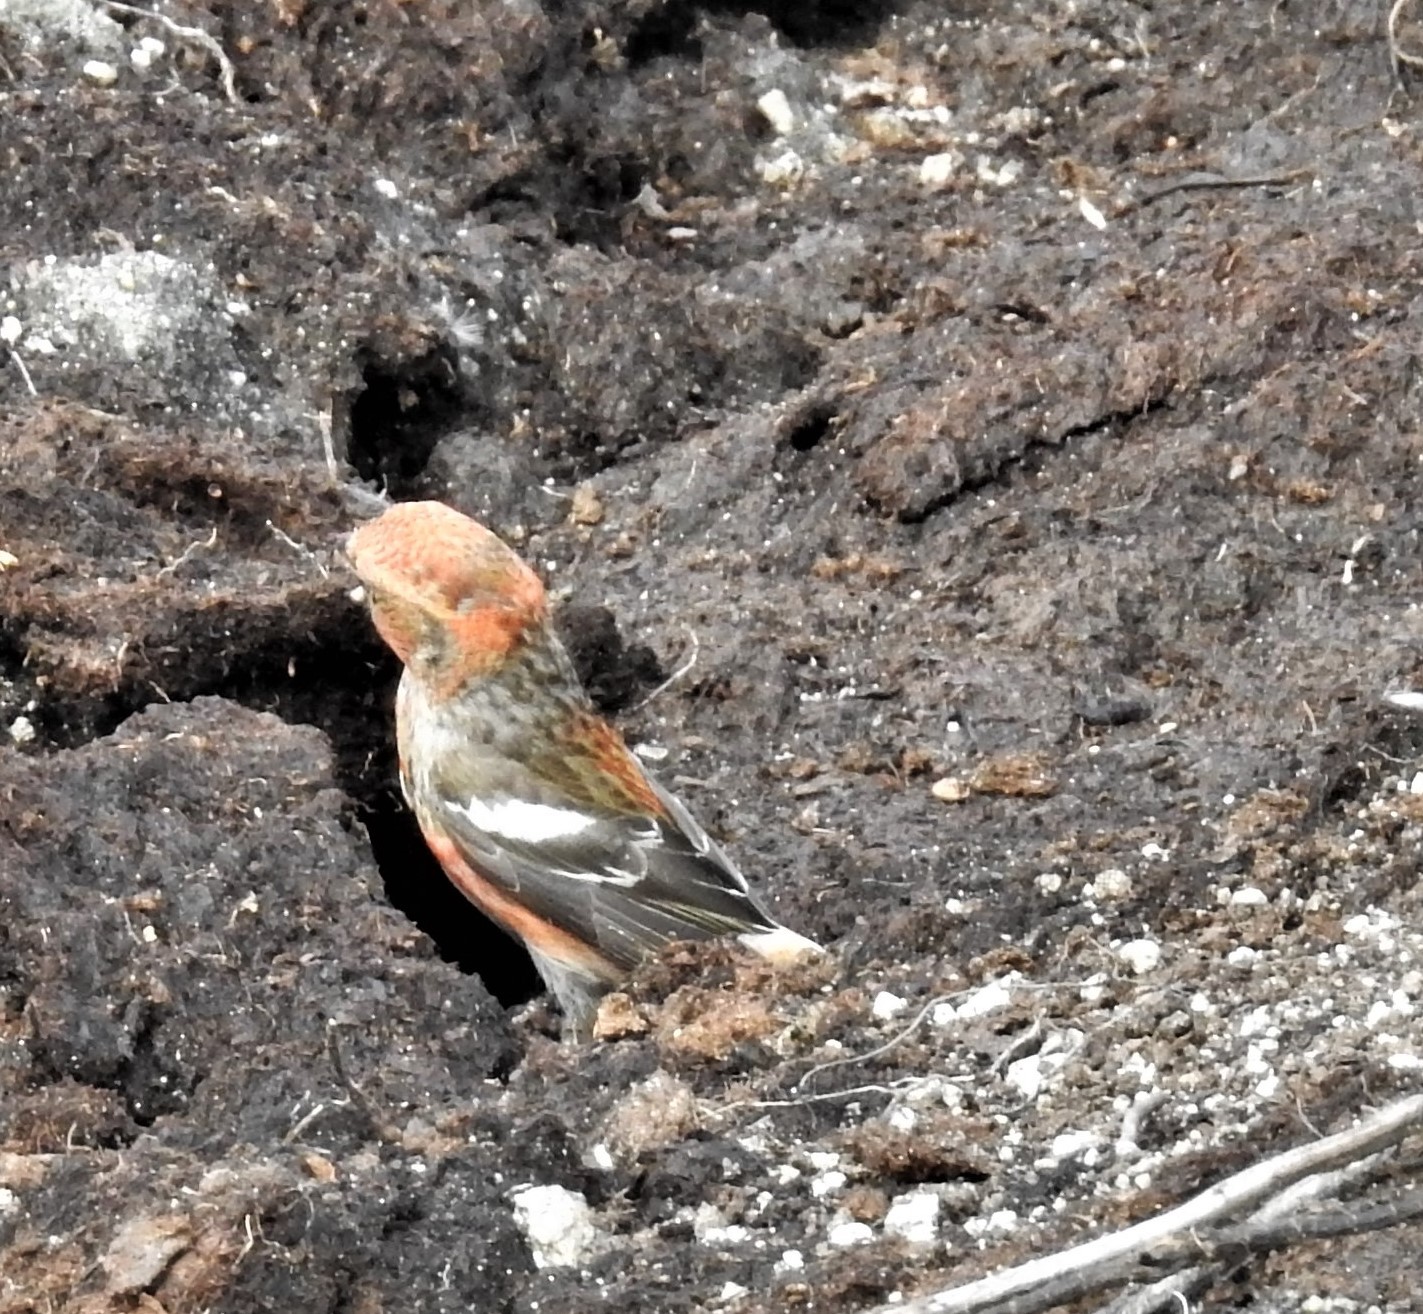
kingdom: Animalia
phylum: Chordata
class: Aves
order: Passeriformes
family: Fringillidae
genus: Loxia
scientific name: Loxia leucoptera
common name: Two-barred crossbill
